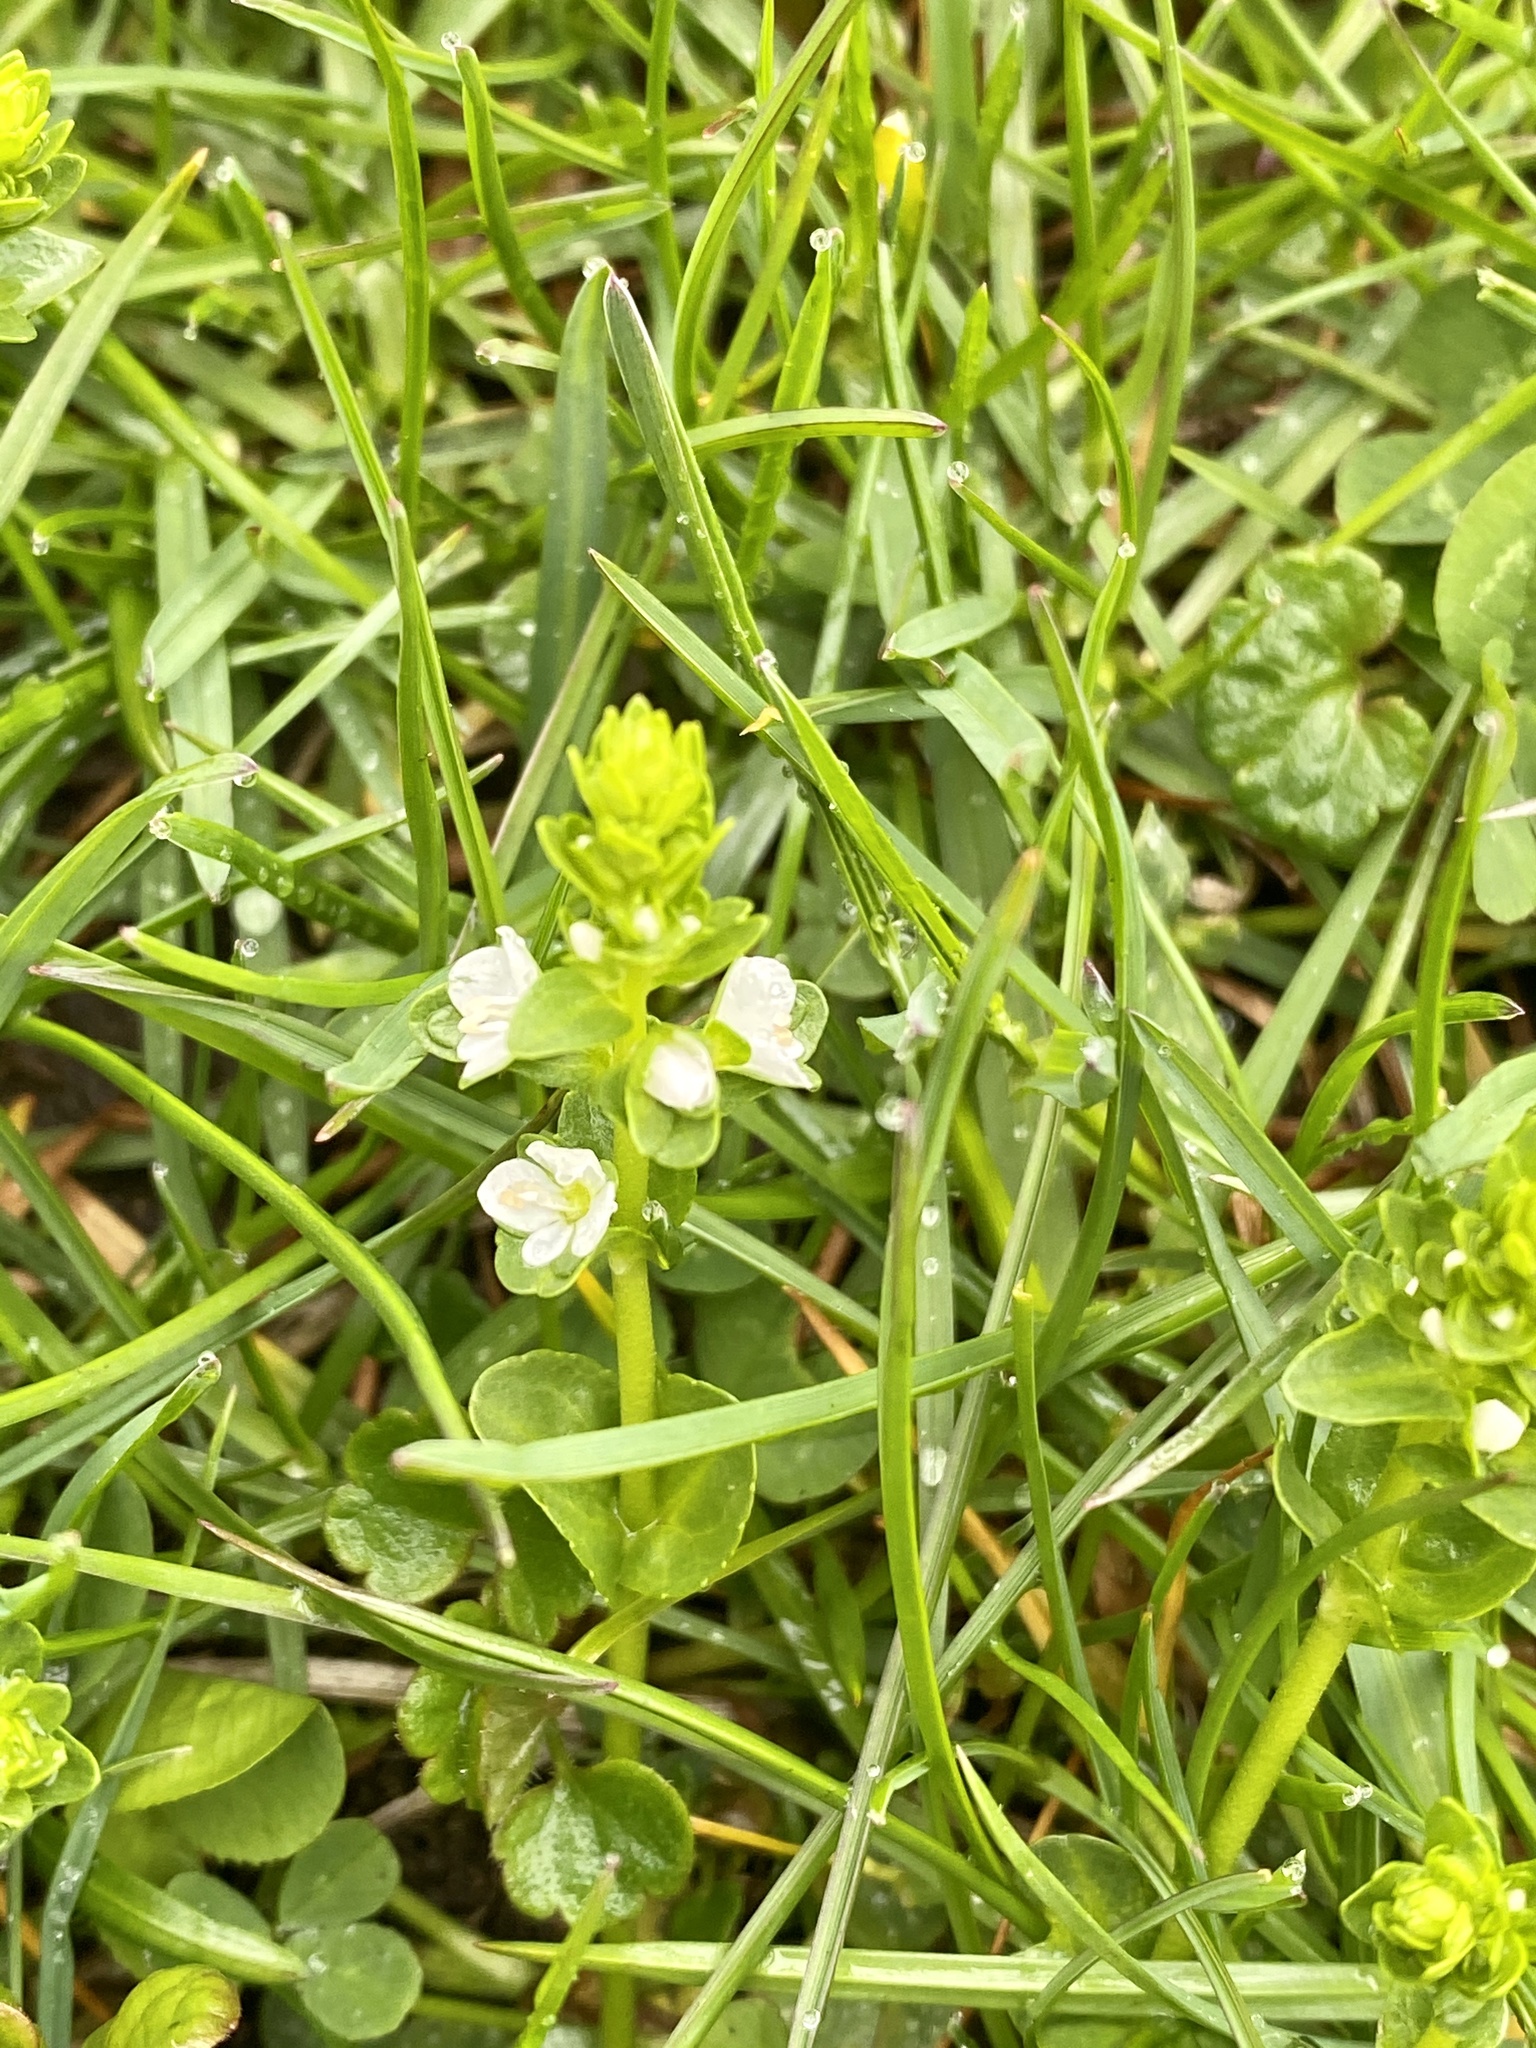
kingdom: Plantae
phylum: Tracheophyta
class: Magnoliopsida
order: Lamiales
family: Plantaginaceae
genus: Veronica
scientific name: Veronica serpyllifolia
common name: Thyme-leaved speedwell
